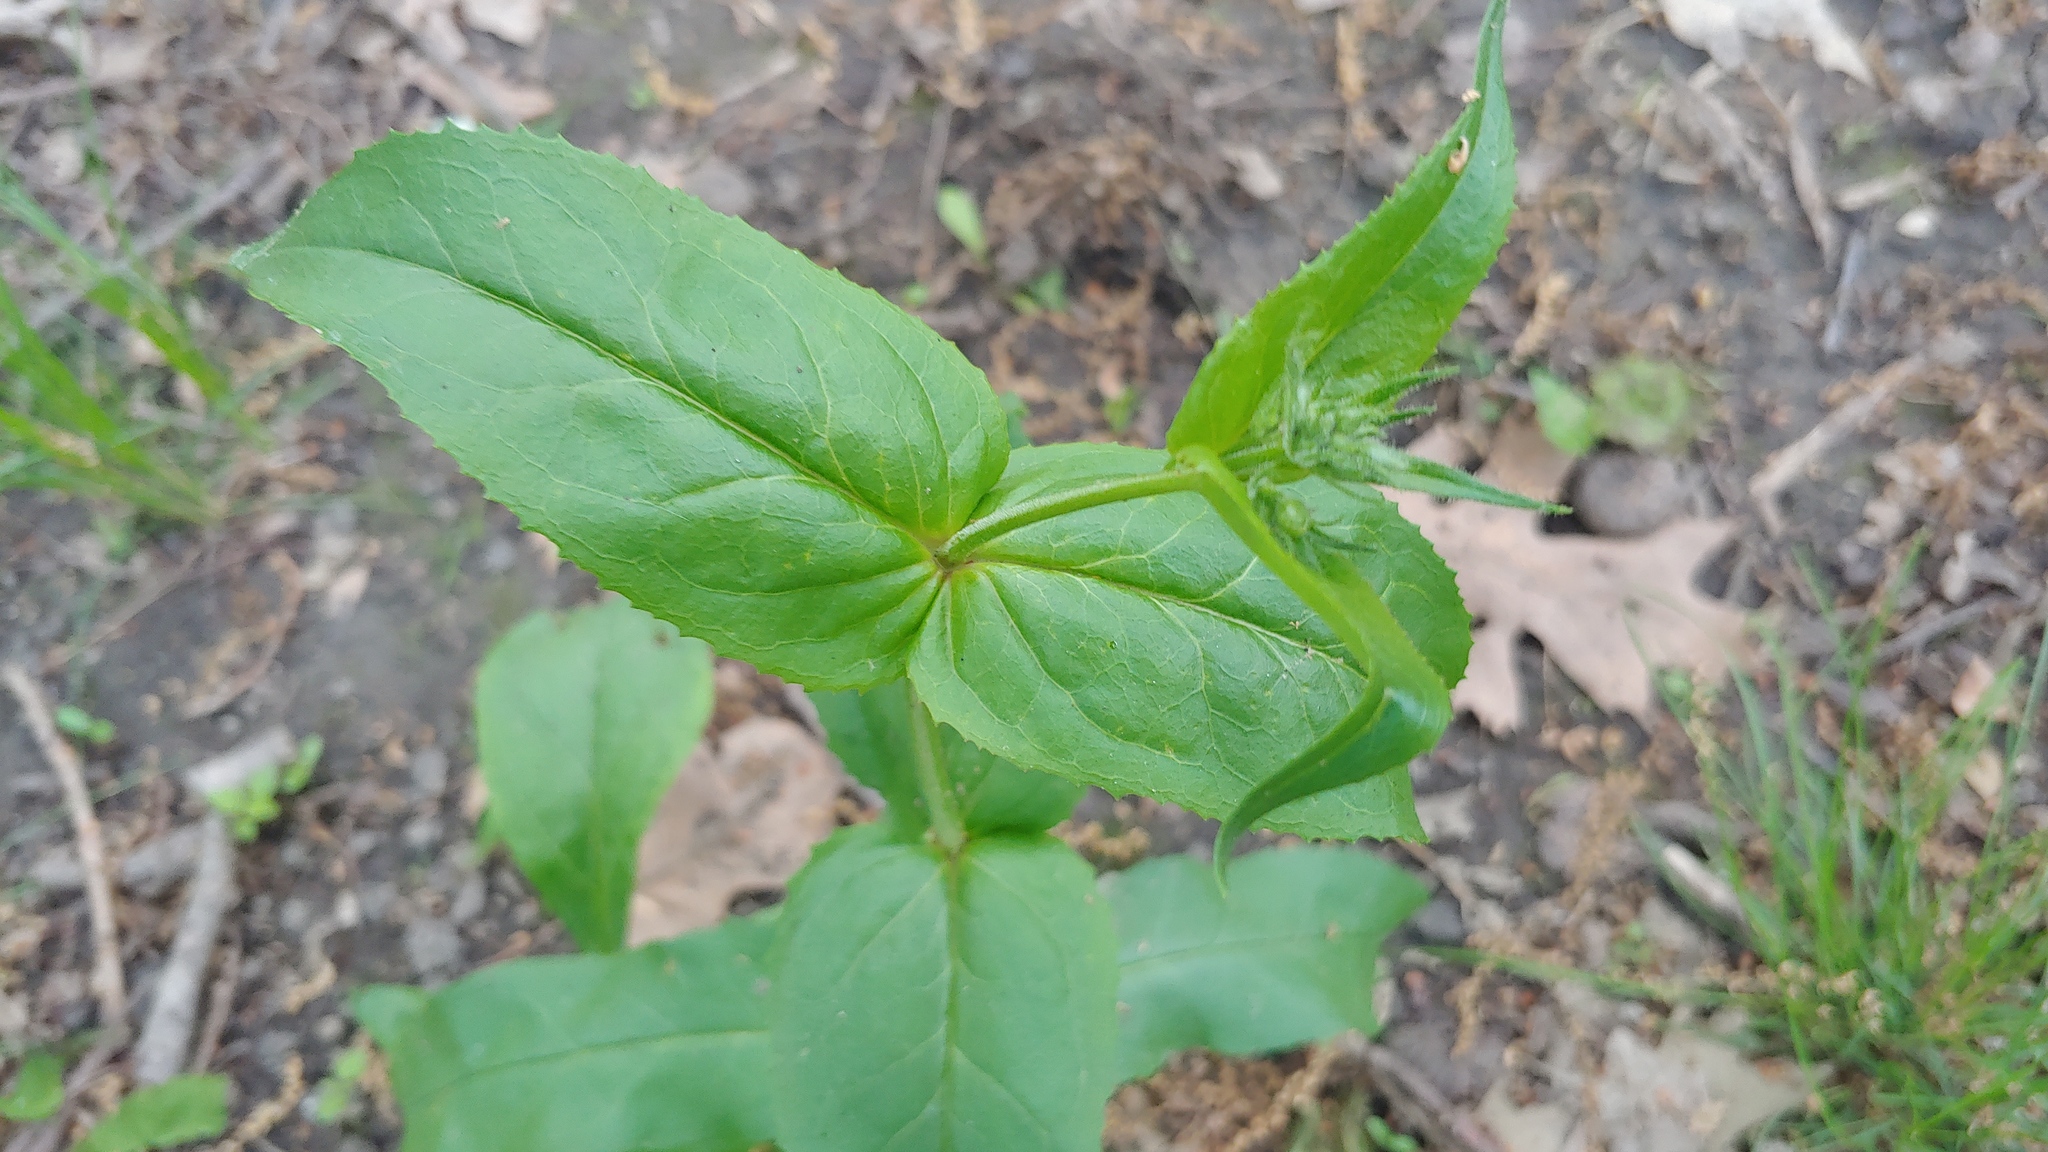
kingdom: Plantae
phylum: Tracheophyta
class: Magnoliopsida
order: Lamiales
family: Plantaginaceae
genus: Penstemon
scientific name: Penstemon digitalis
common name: Foxglove beardtongue
